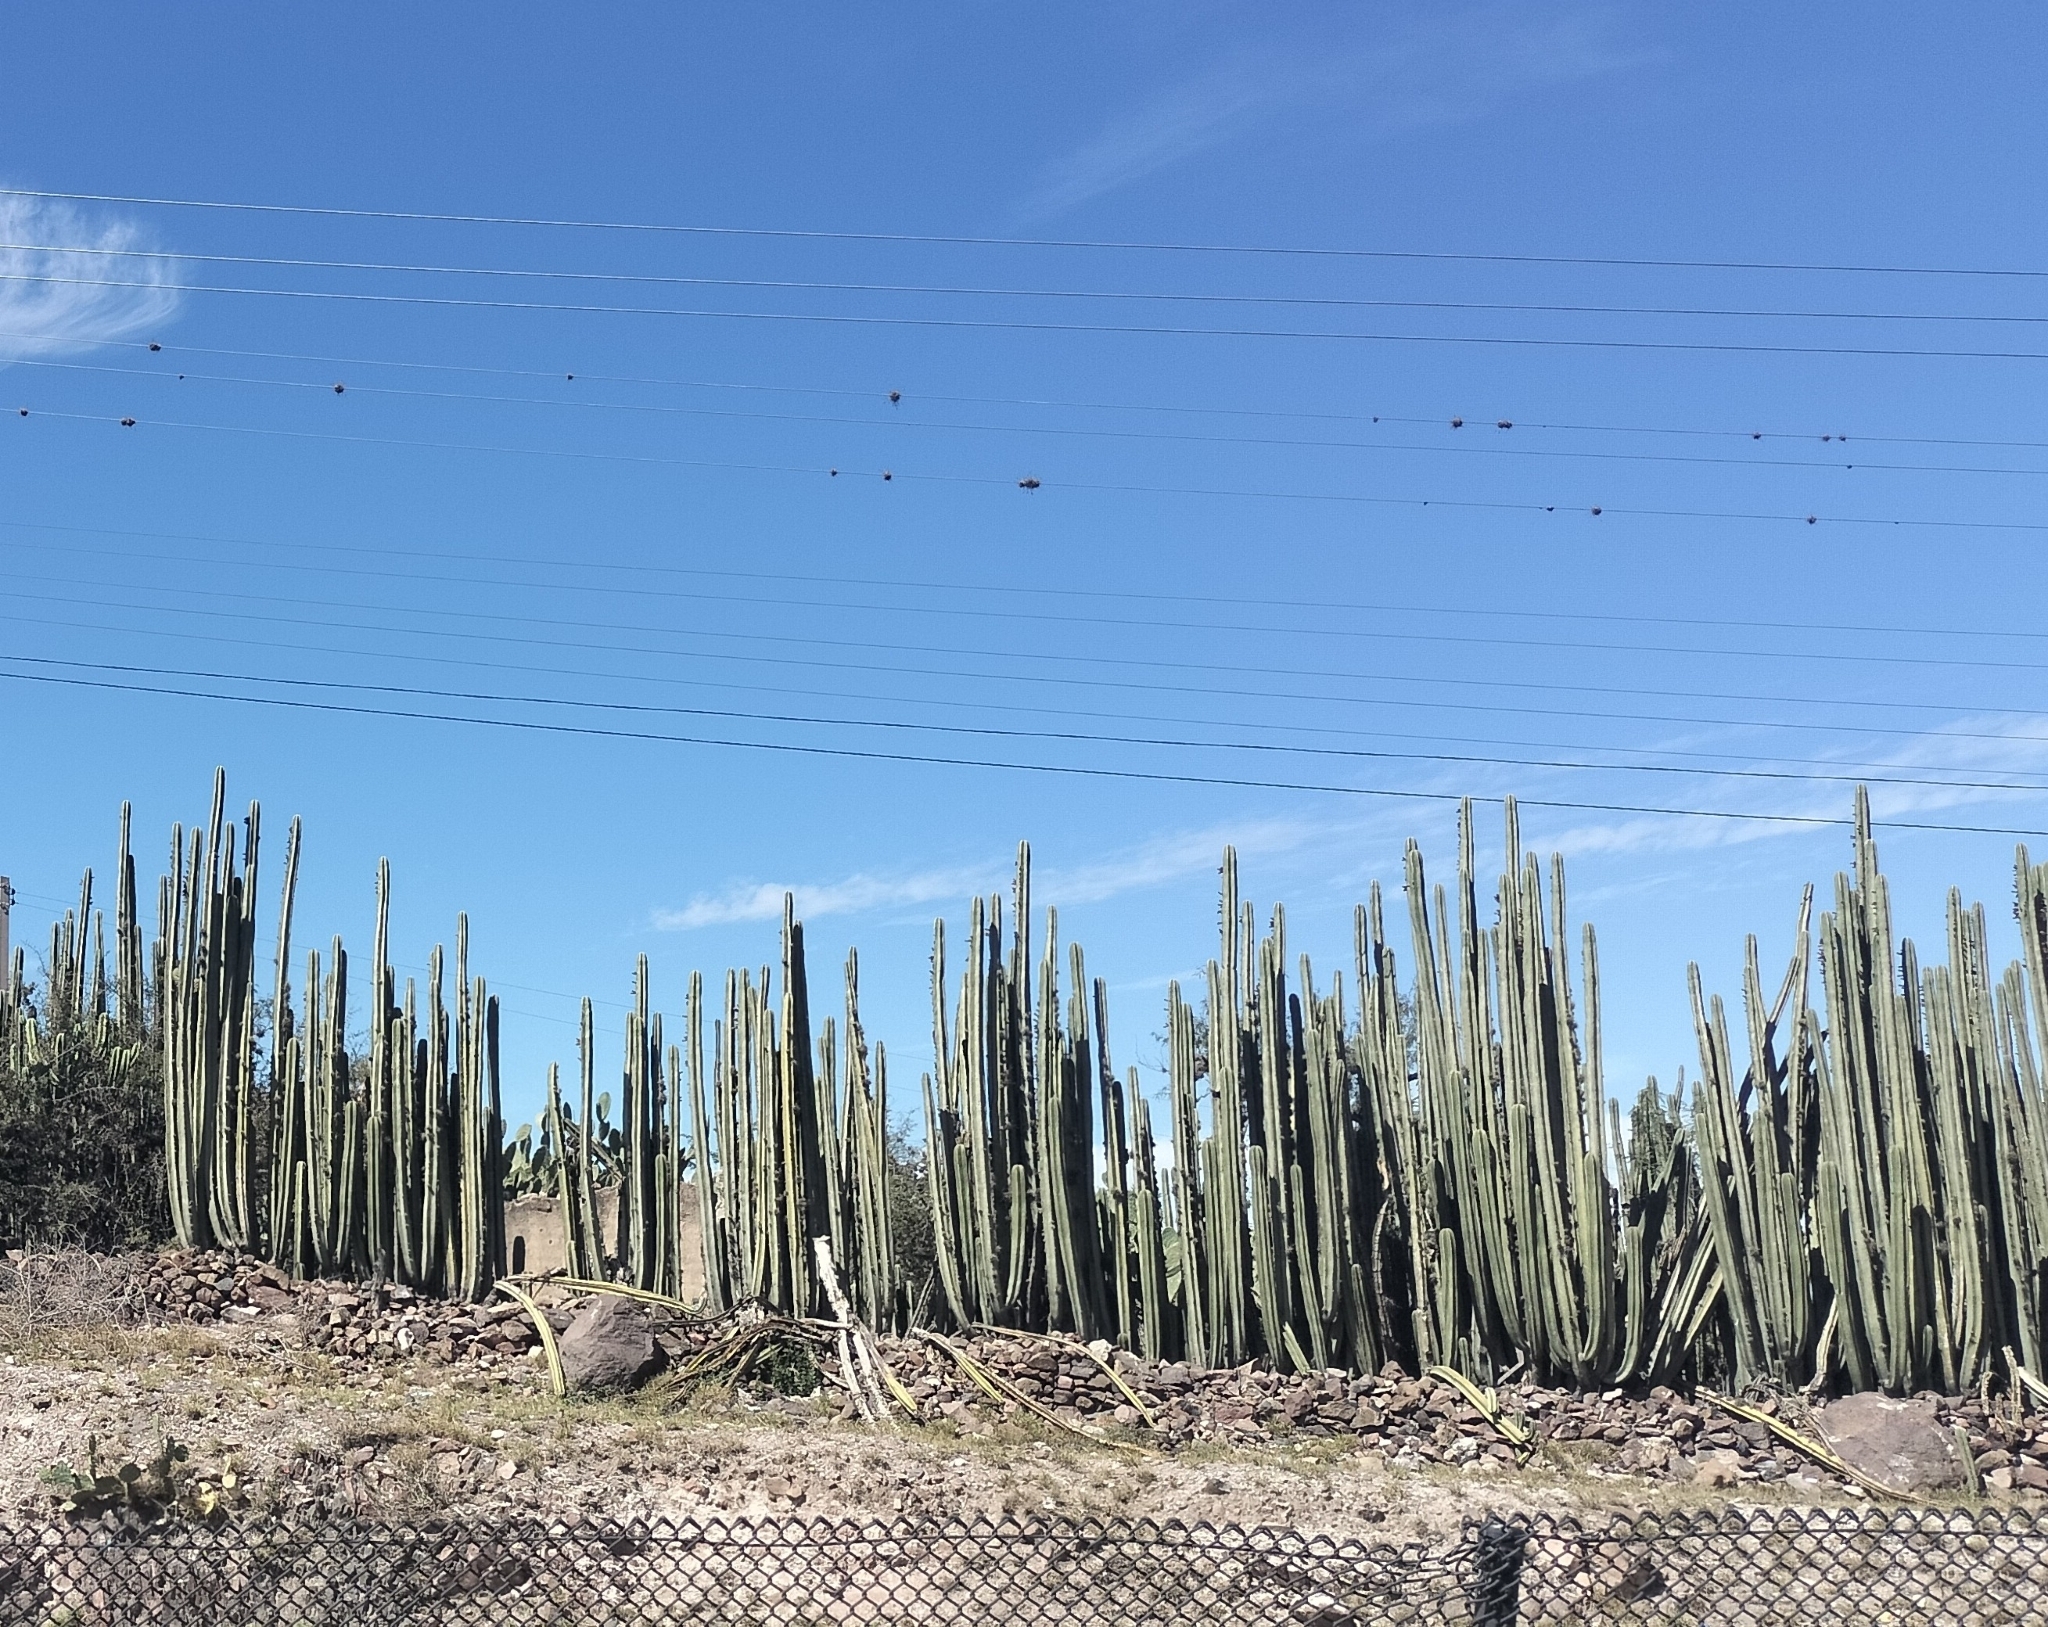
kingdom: Plantae
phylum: Tracheophyta
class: Magnoliopsida
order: Caryophyllales
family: Cactaceae
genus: Marginatocereus
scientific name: Marginatocereus marginatus
